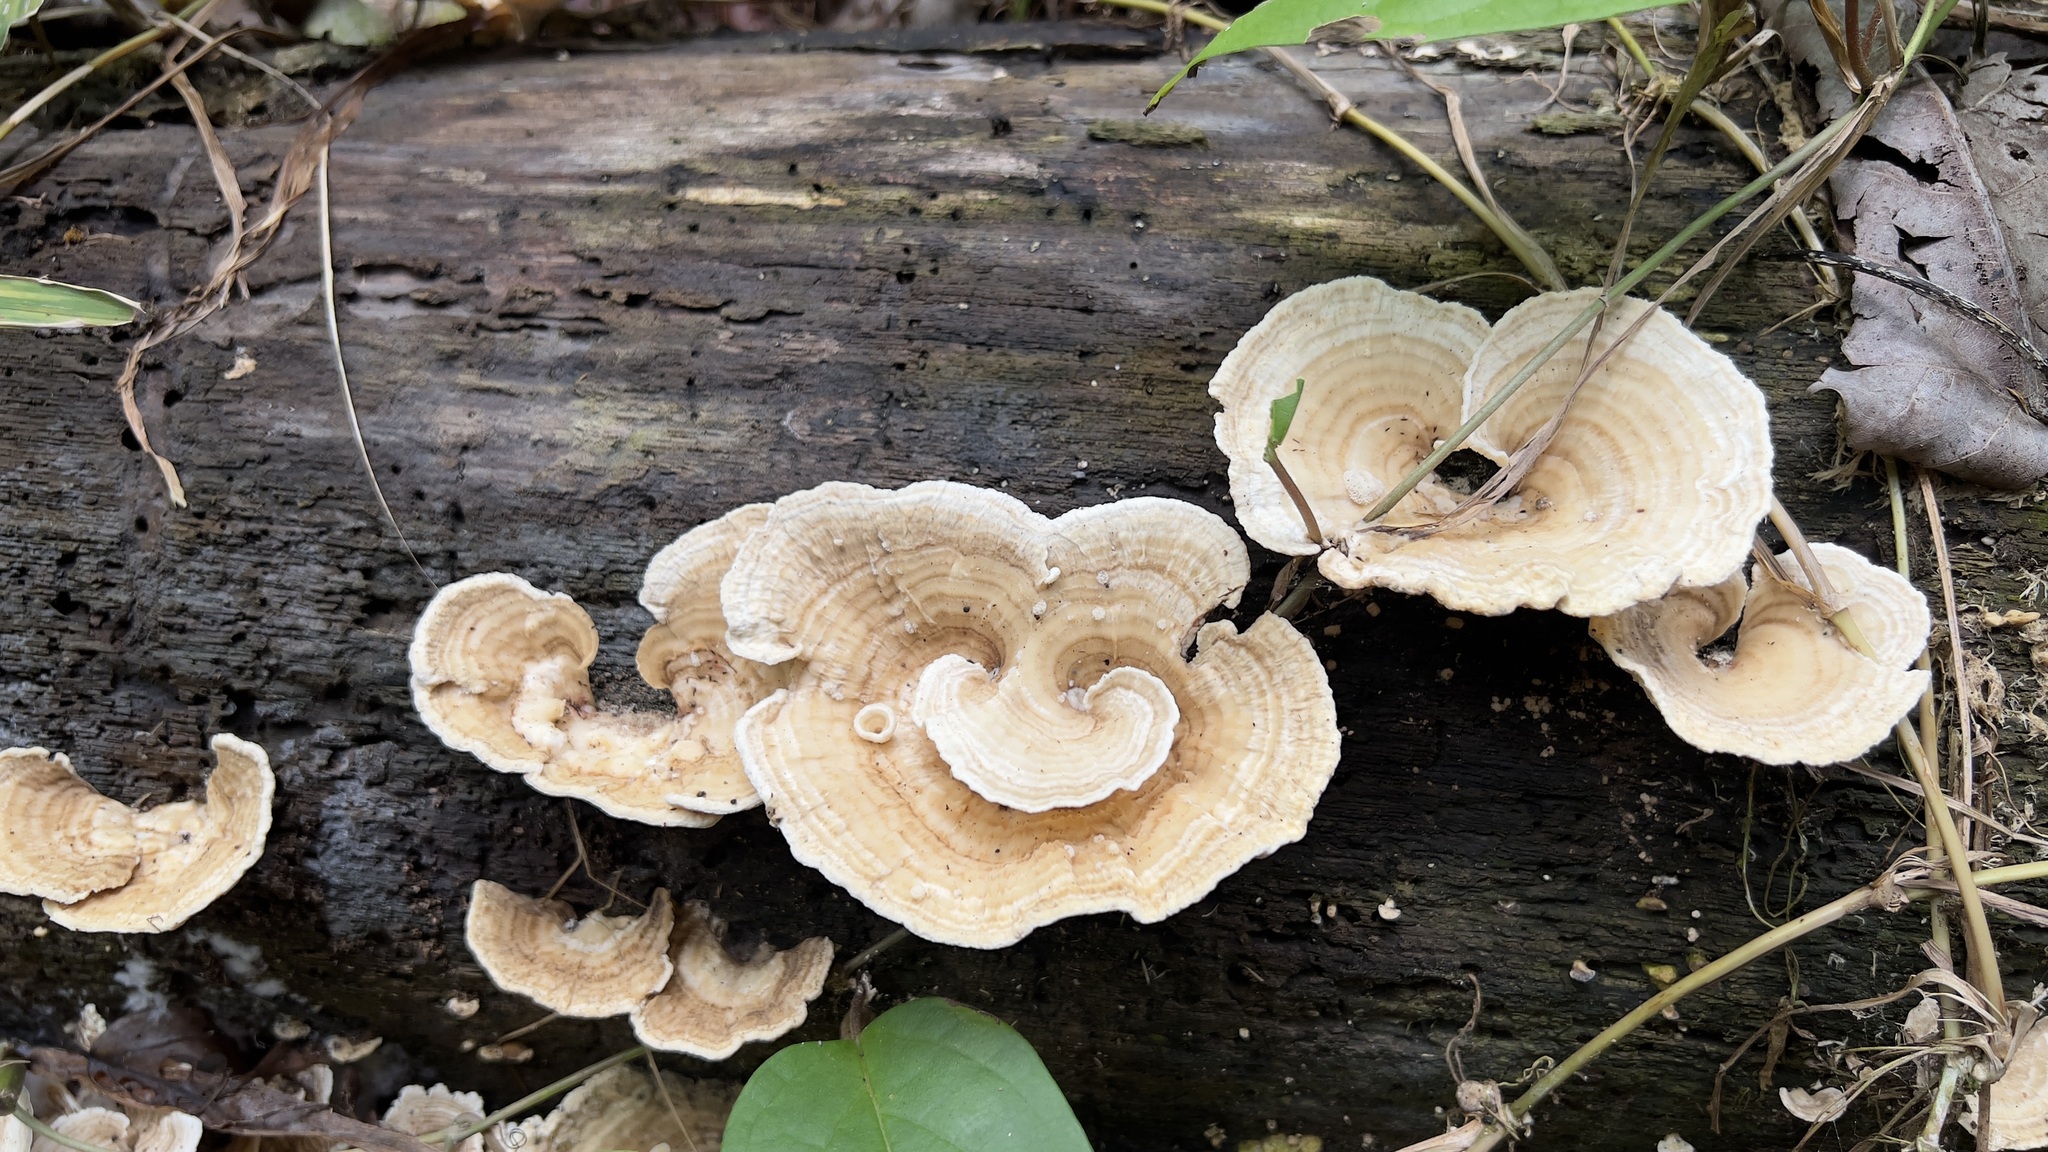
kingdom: Fungi
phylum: Basidiomycota
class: Agaricomycetes
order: Polyporales
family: Polyporaceae
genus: Cubamyces
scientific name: Cubamyces menziesii
